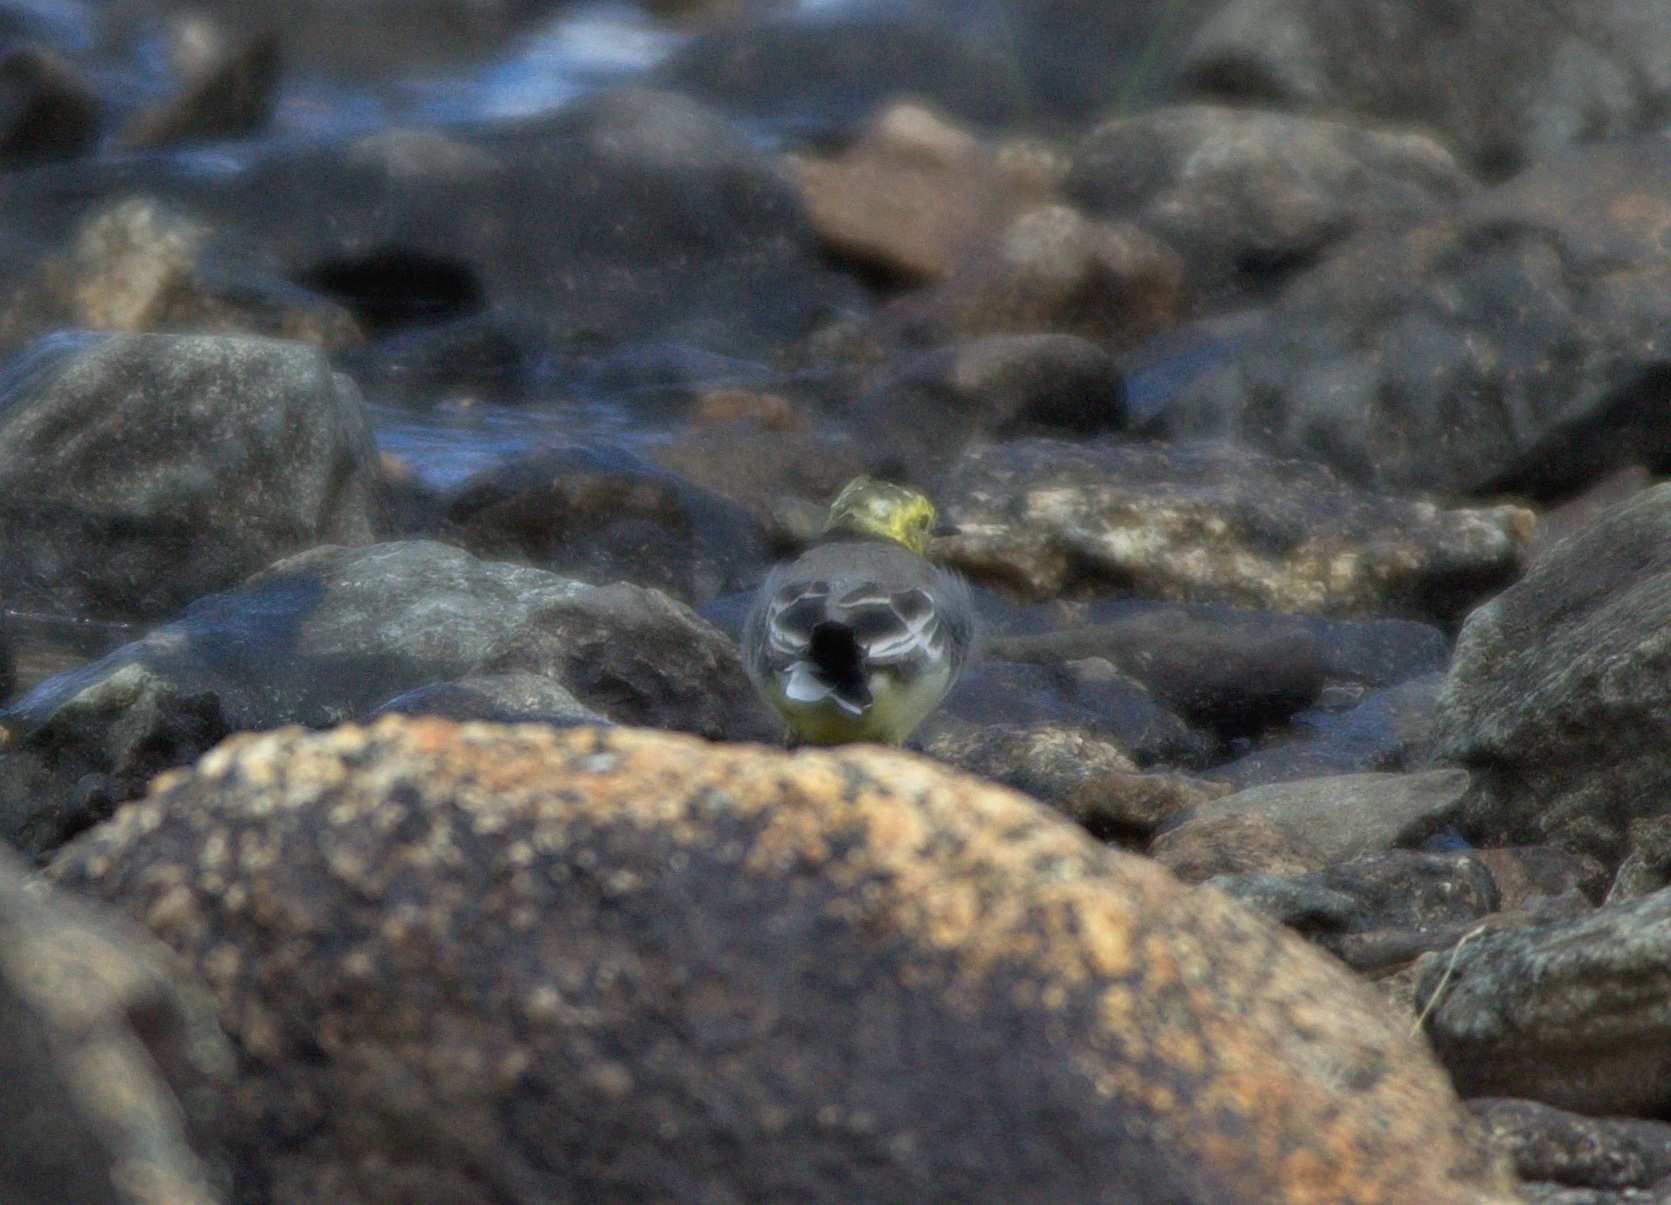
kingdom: Animalia
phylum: Chordata
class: Aves
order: Passeriformes
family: Motacillidae
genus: Motacilla
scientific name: Motacilla citreola
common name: Citrine wagtail
